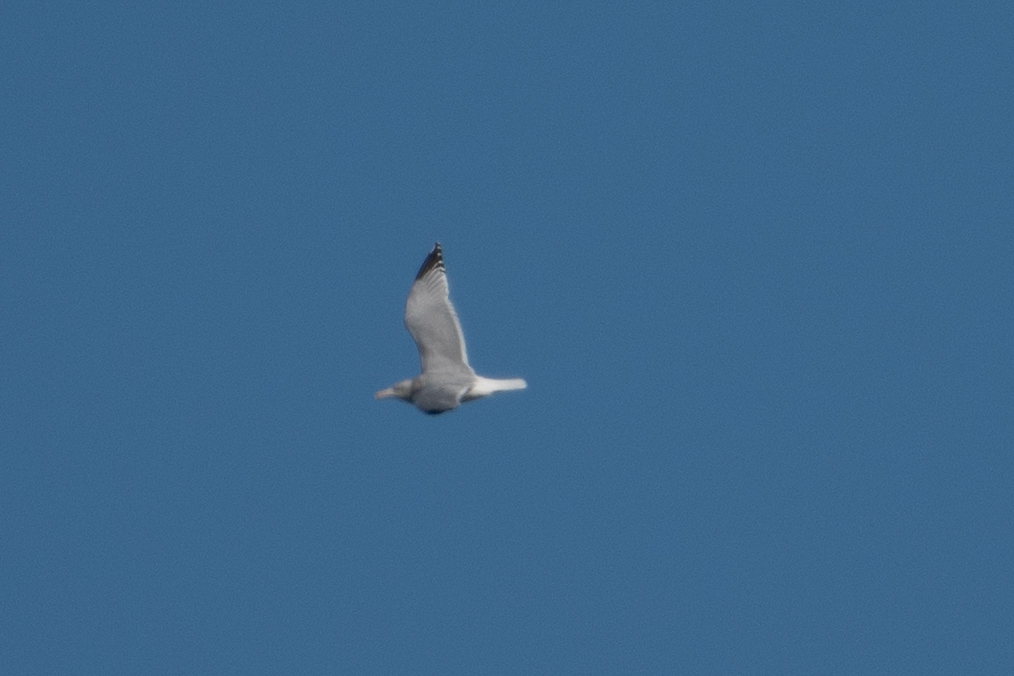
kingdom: Animalia
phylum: Chordata
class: Aves
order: Charadriiformes
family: Laridae
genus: Larus
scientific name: Larus argentatus
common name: Herring gull
